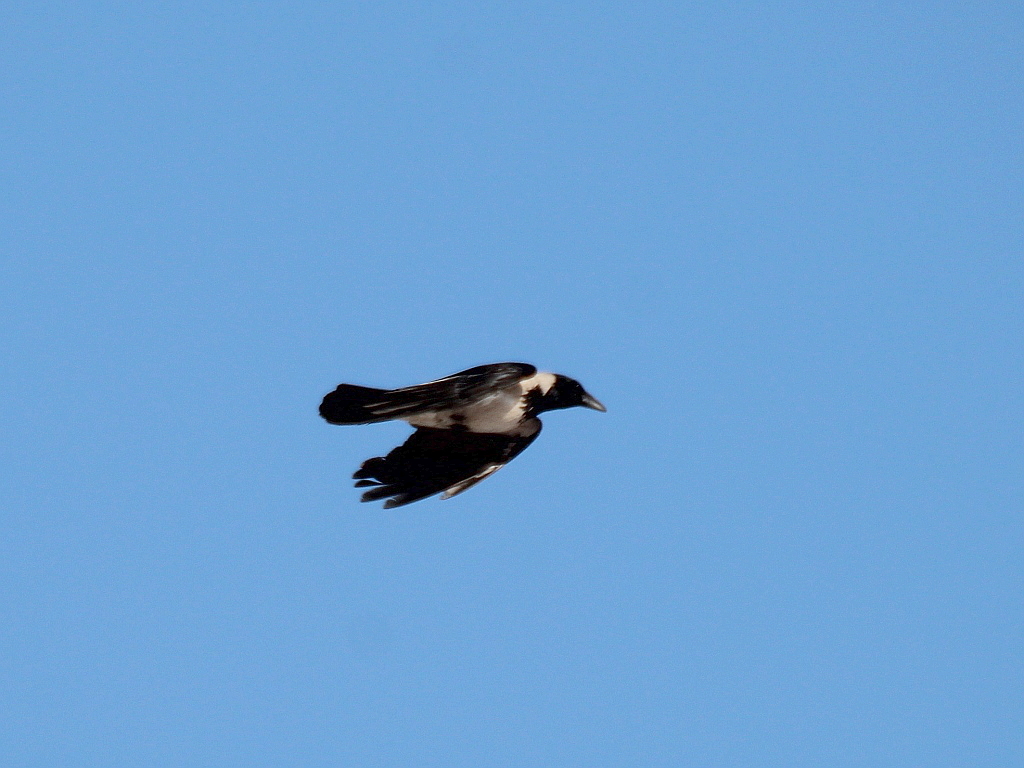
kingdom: Animalia
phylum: Chordata
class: Aves
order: Passeriformes
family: Corvidae
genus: Corvus
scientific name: Corvus cornix
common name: Hooded crow
